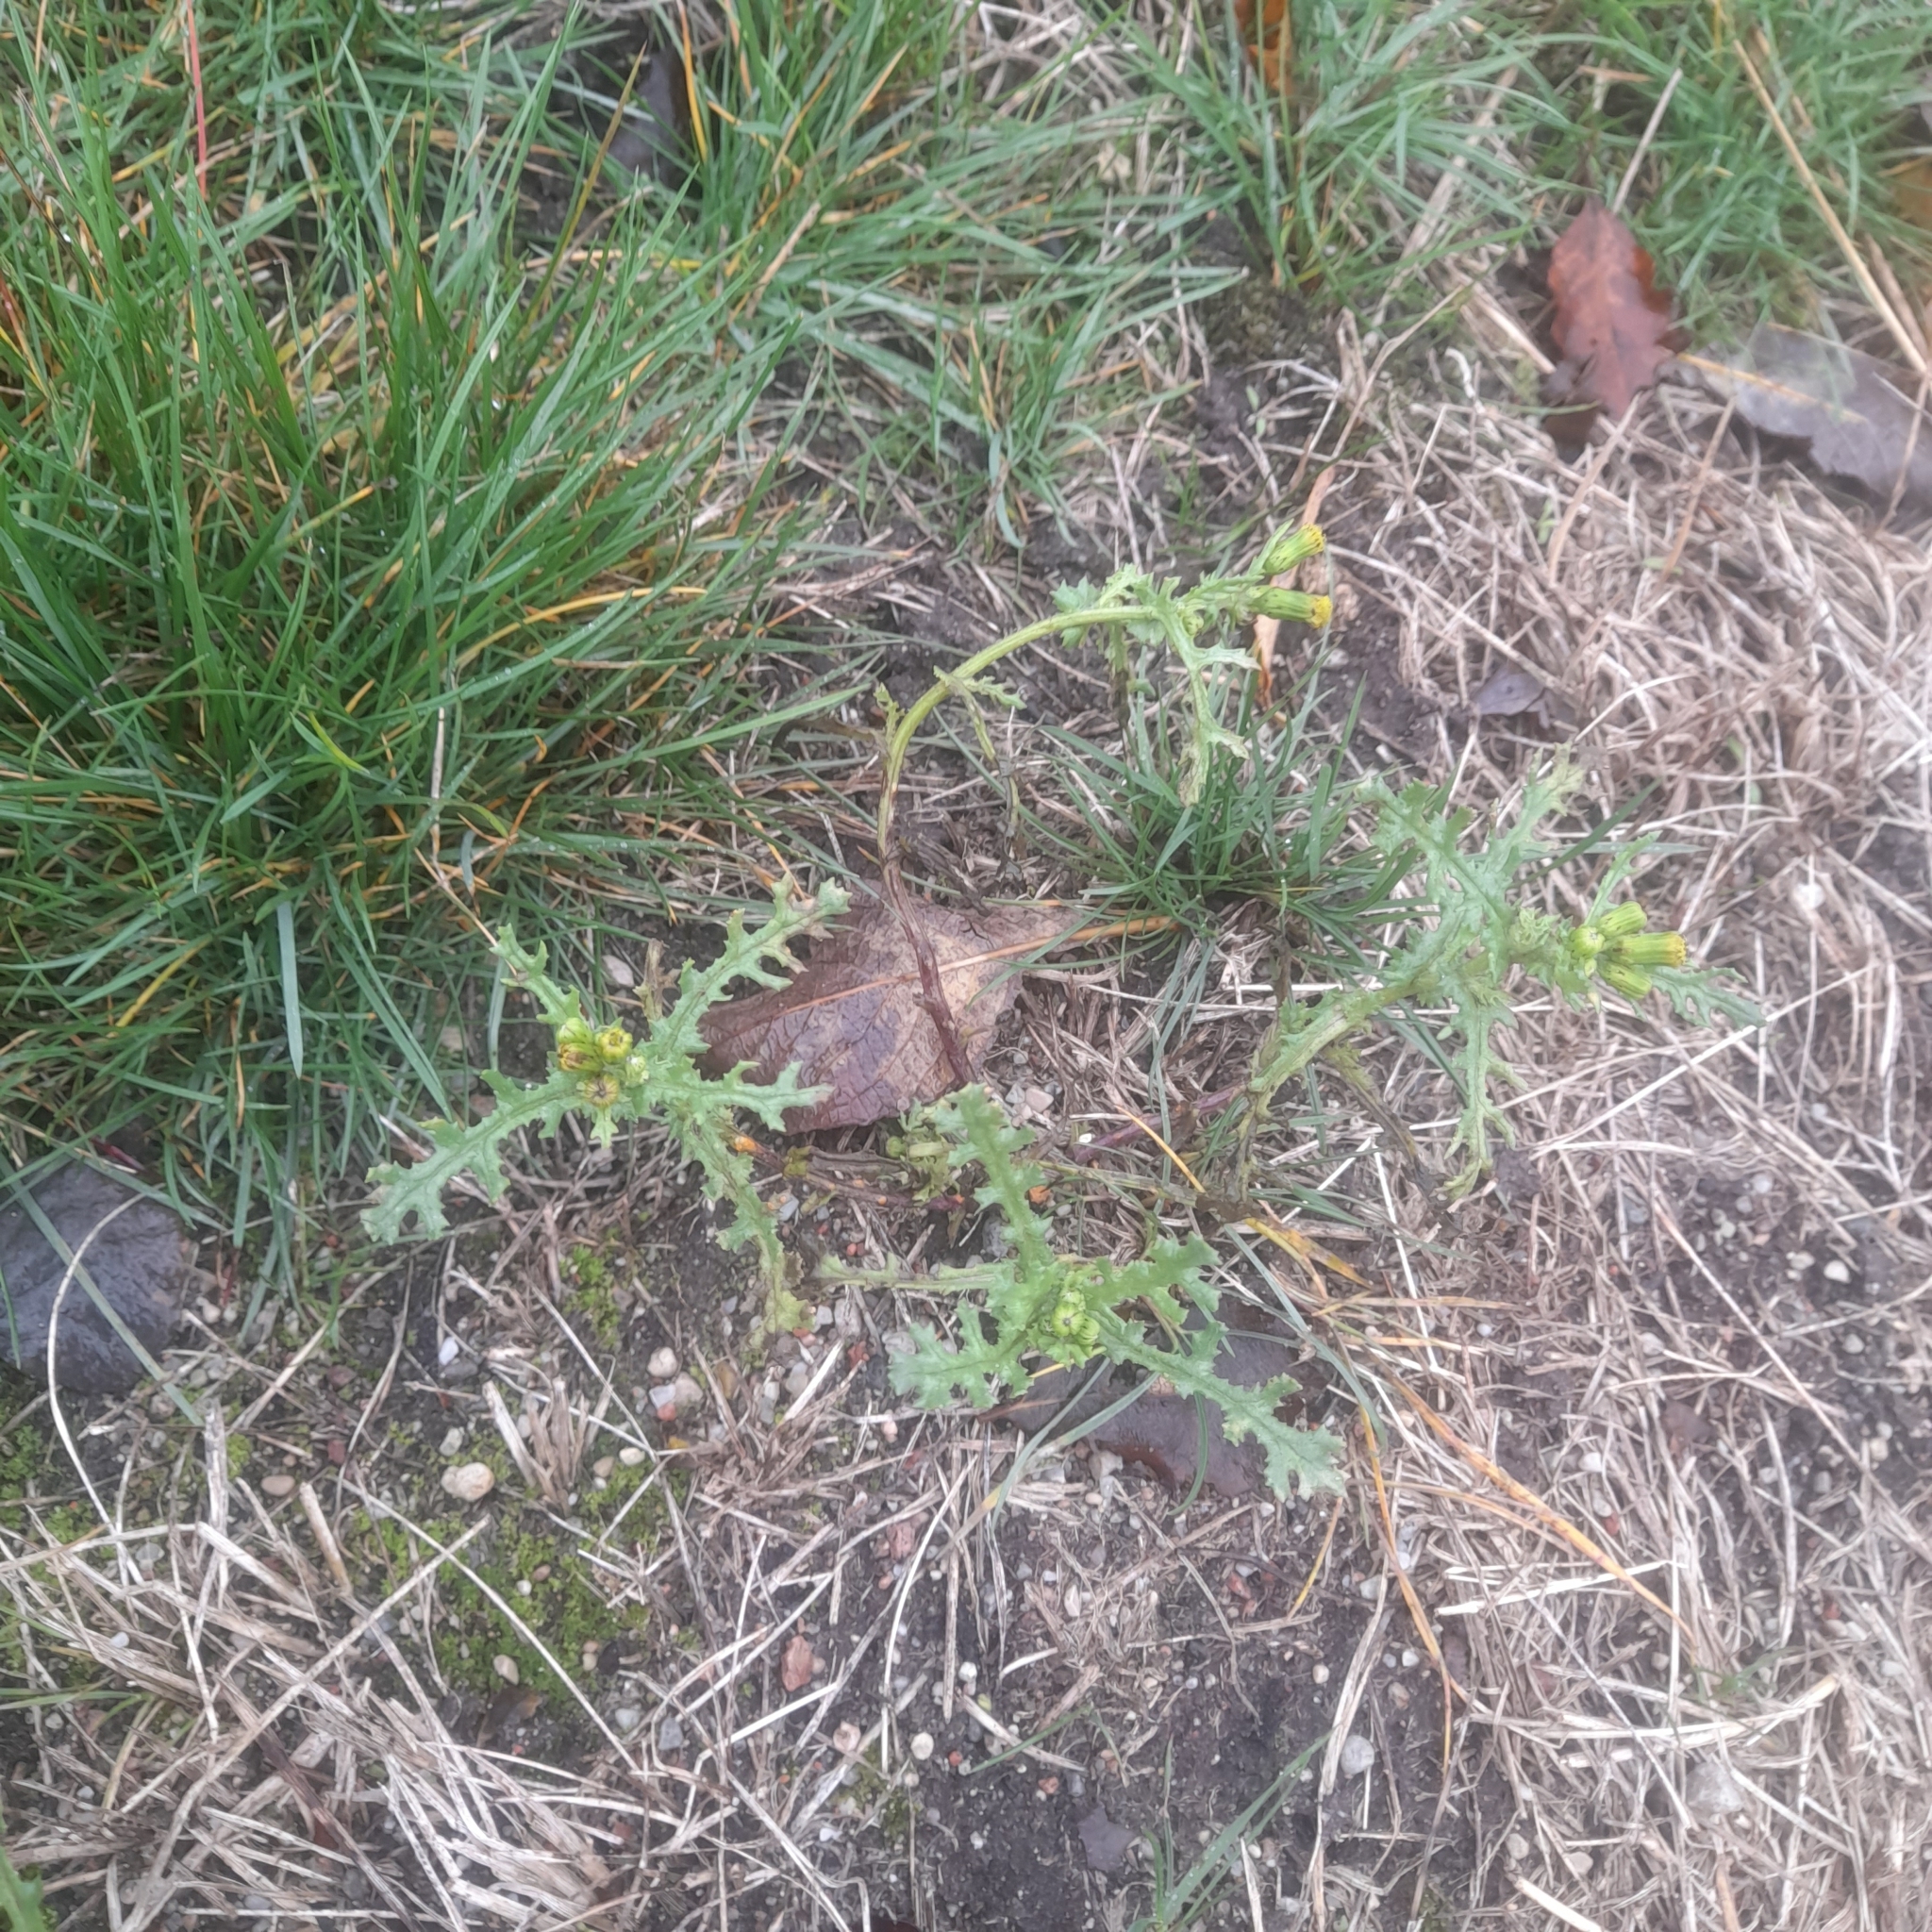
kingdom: Plantae
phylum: Tracheophyta
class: Magnoliopsida
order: Asterales
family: Asteraceae
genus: Senecio
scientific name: Senecio vulgaris
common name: Old-man-in-the-spring
